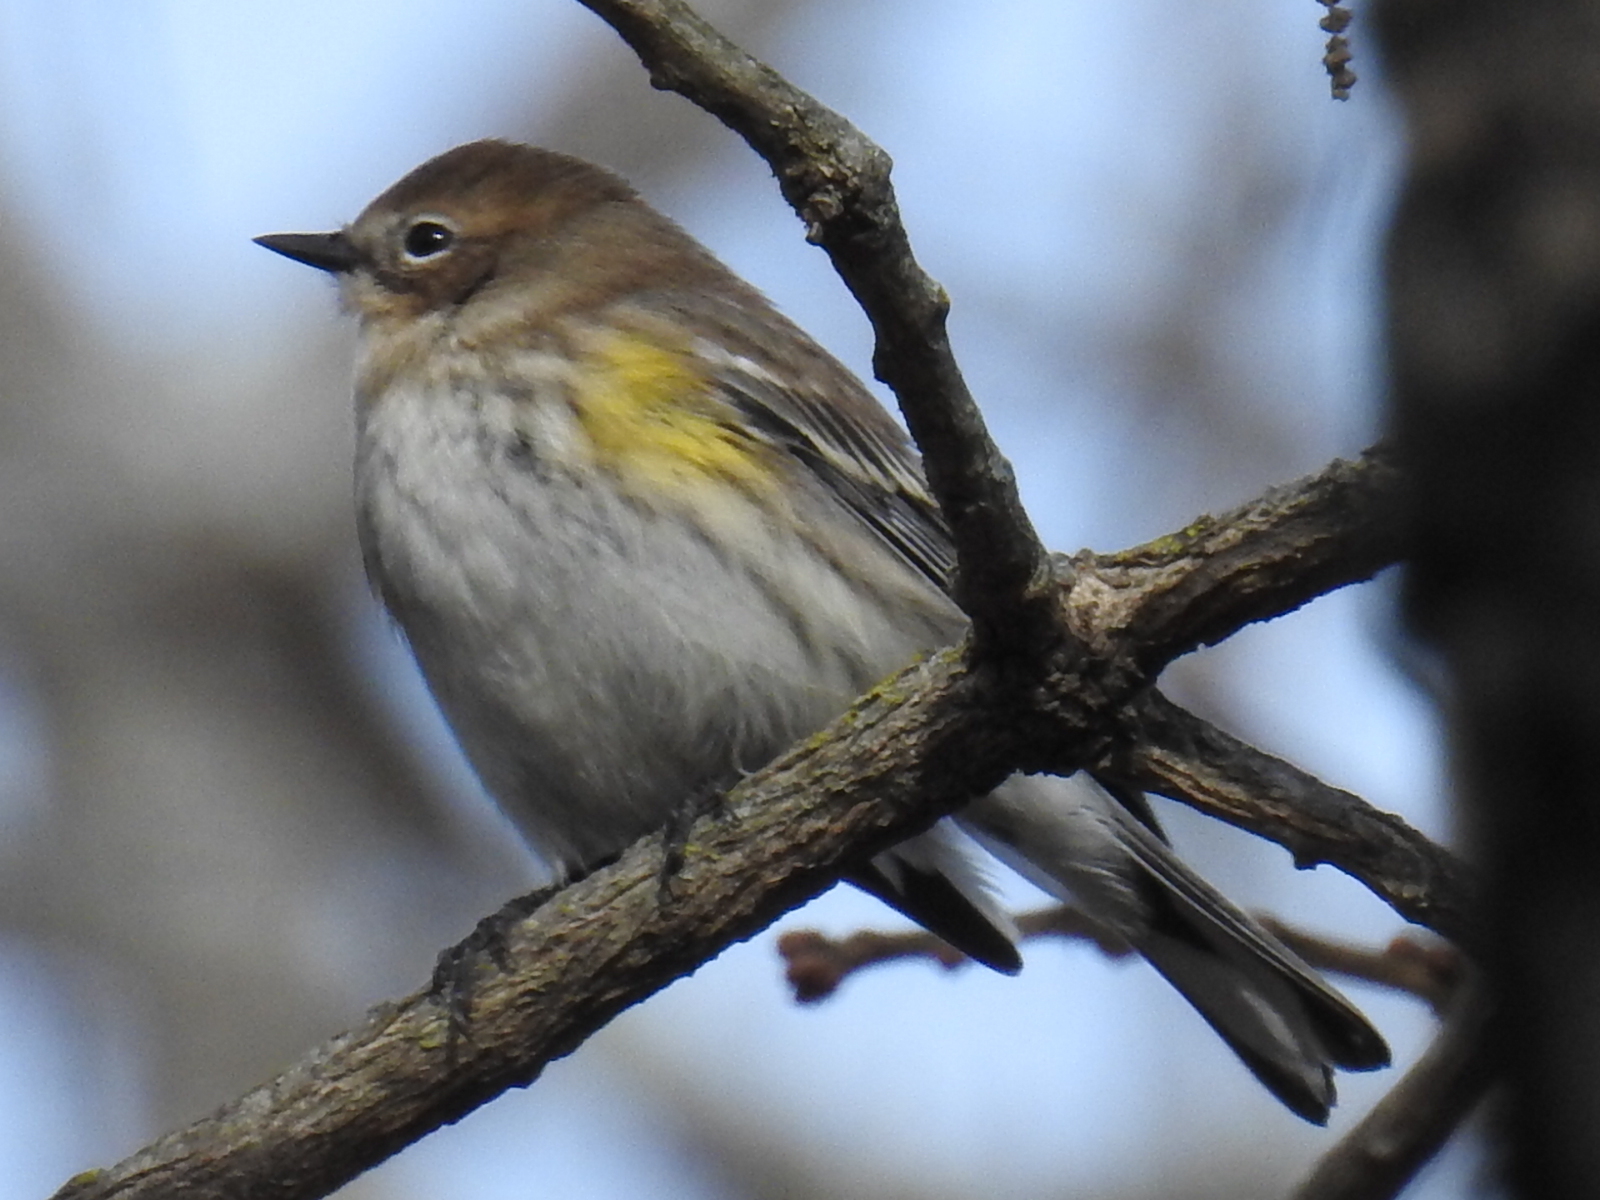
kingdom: Animalia
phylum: Chordata
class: Aves
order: Passeriformes
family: Parulidae
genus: Setophaga
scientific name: Setophaga coronata
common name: Myrtle warbler
